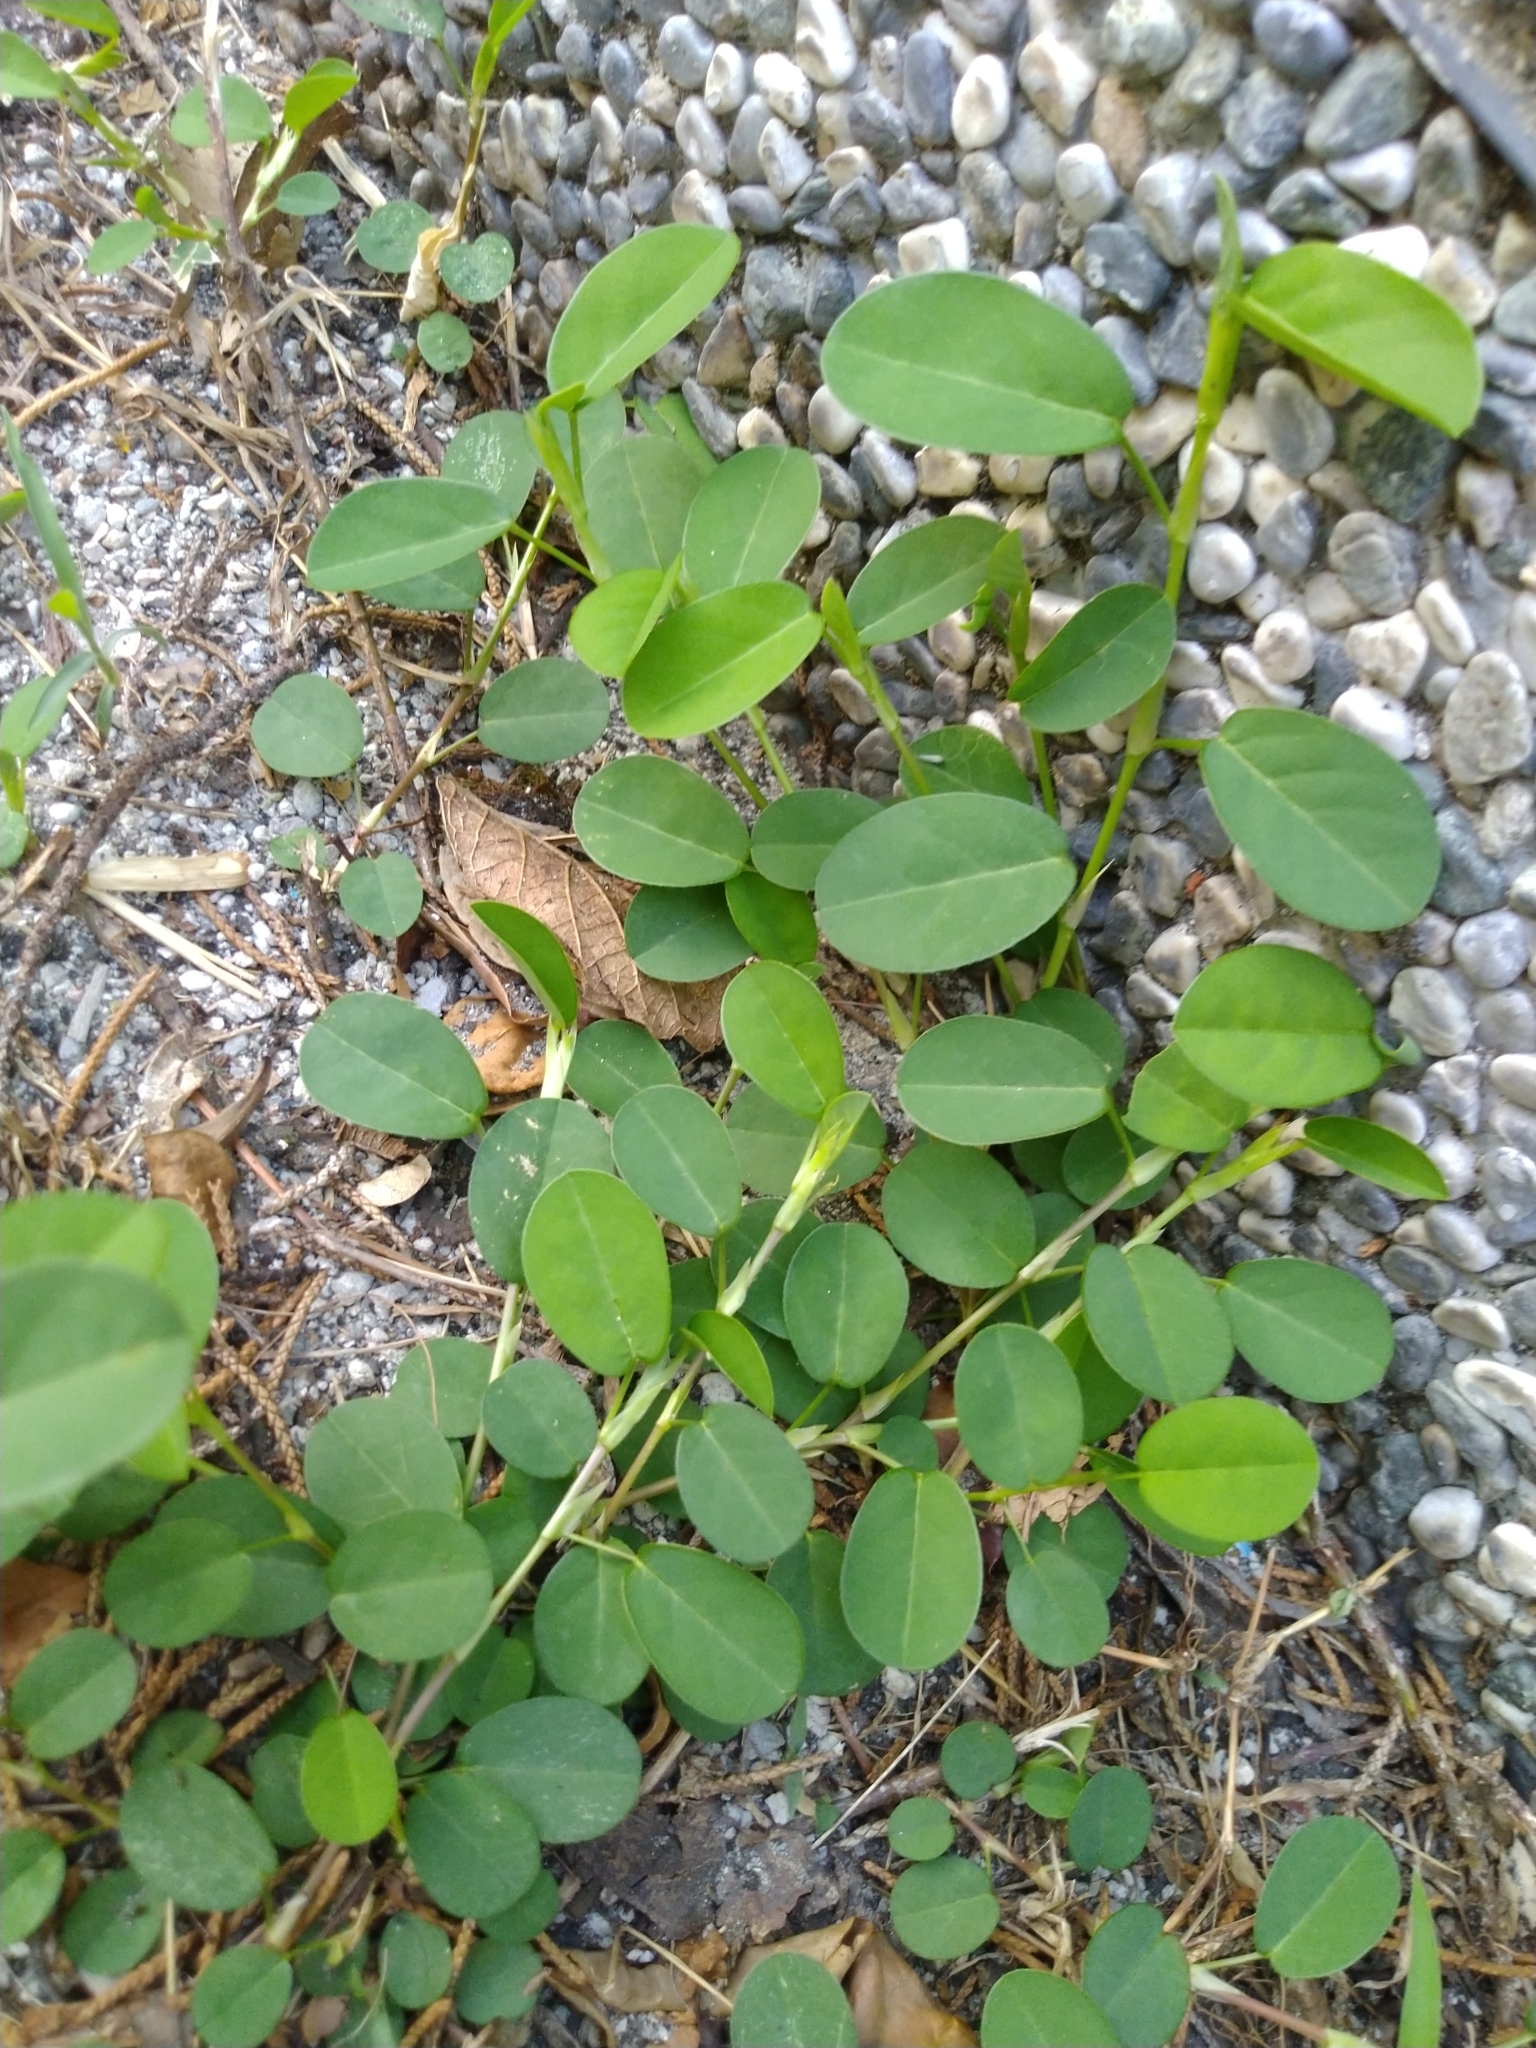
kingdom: Plantae
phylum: Tracheophyta
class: Magnoliopsida
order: Fabales
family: Fabaceae
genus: Alysicarpus
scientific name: Alysicarpus vaginalis
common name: White moneywort
